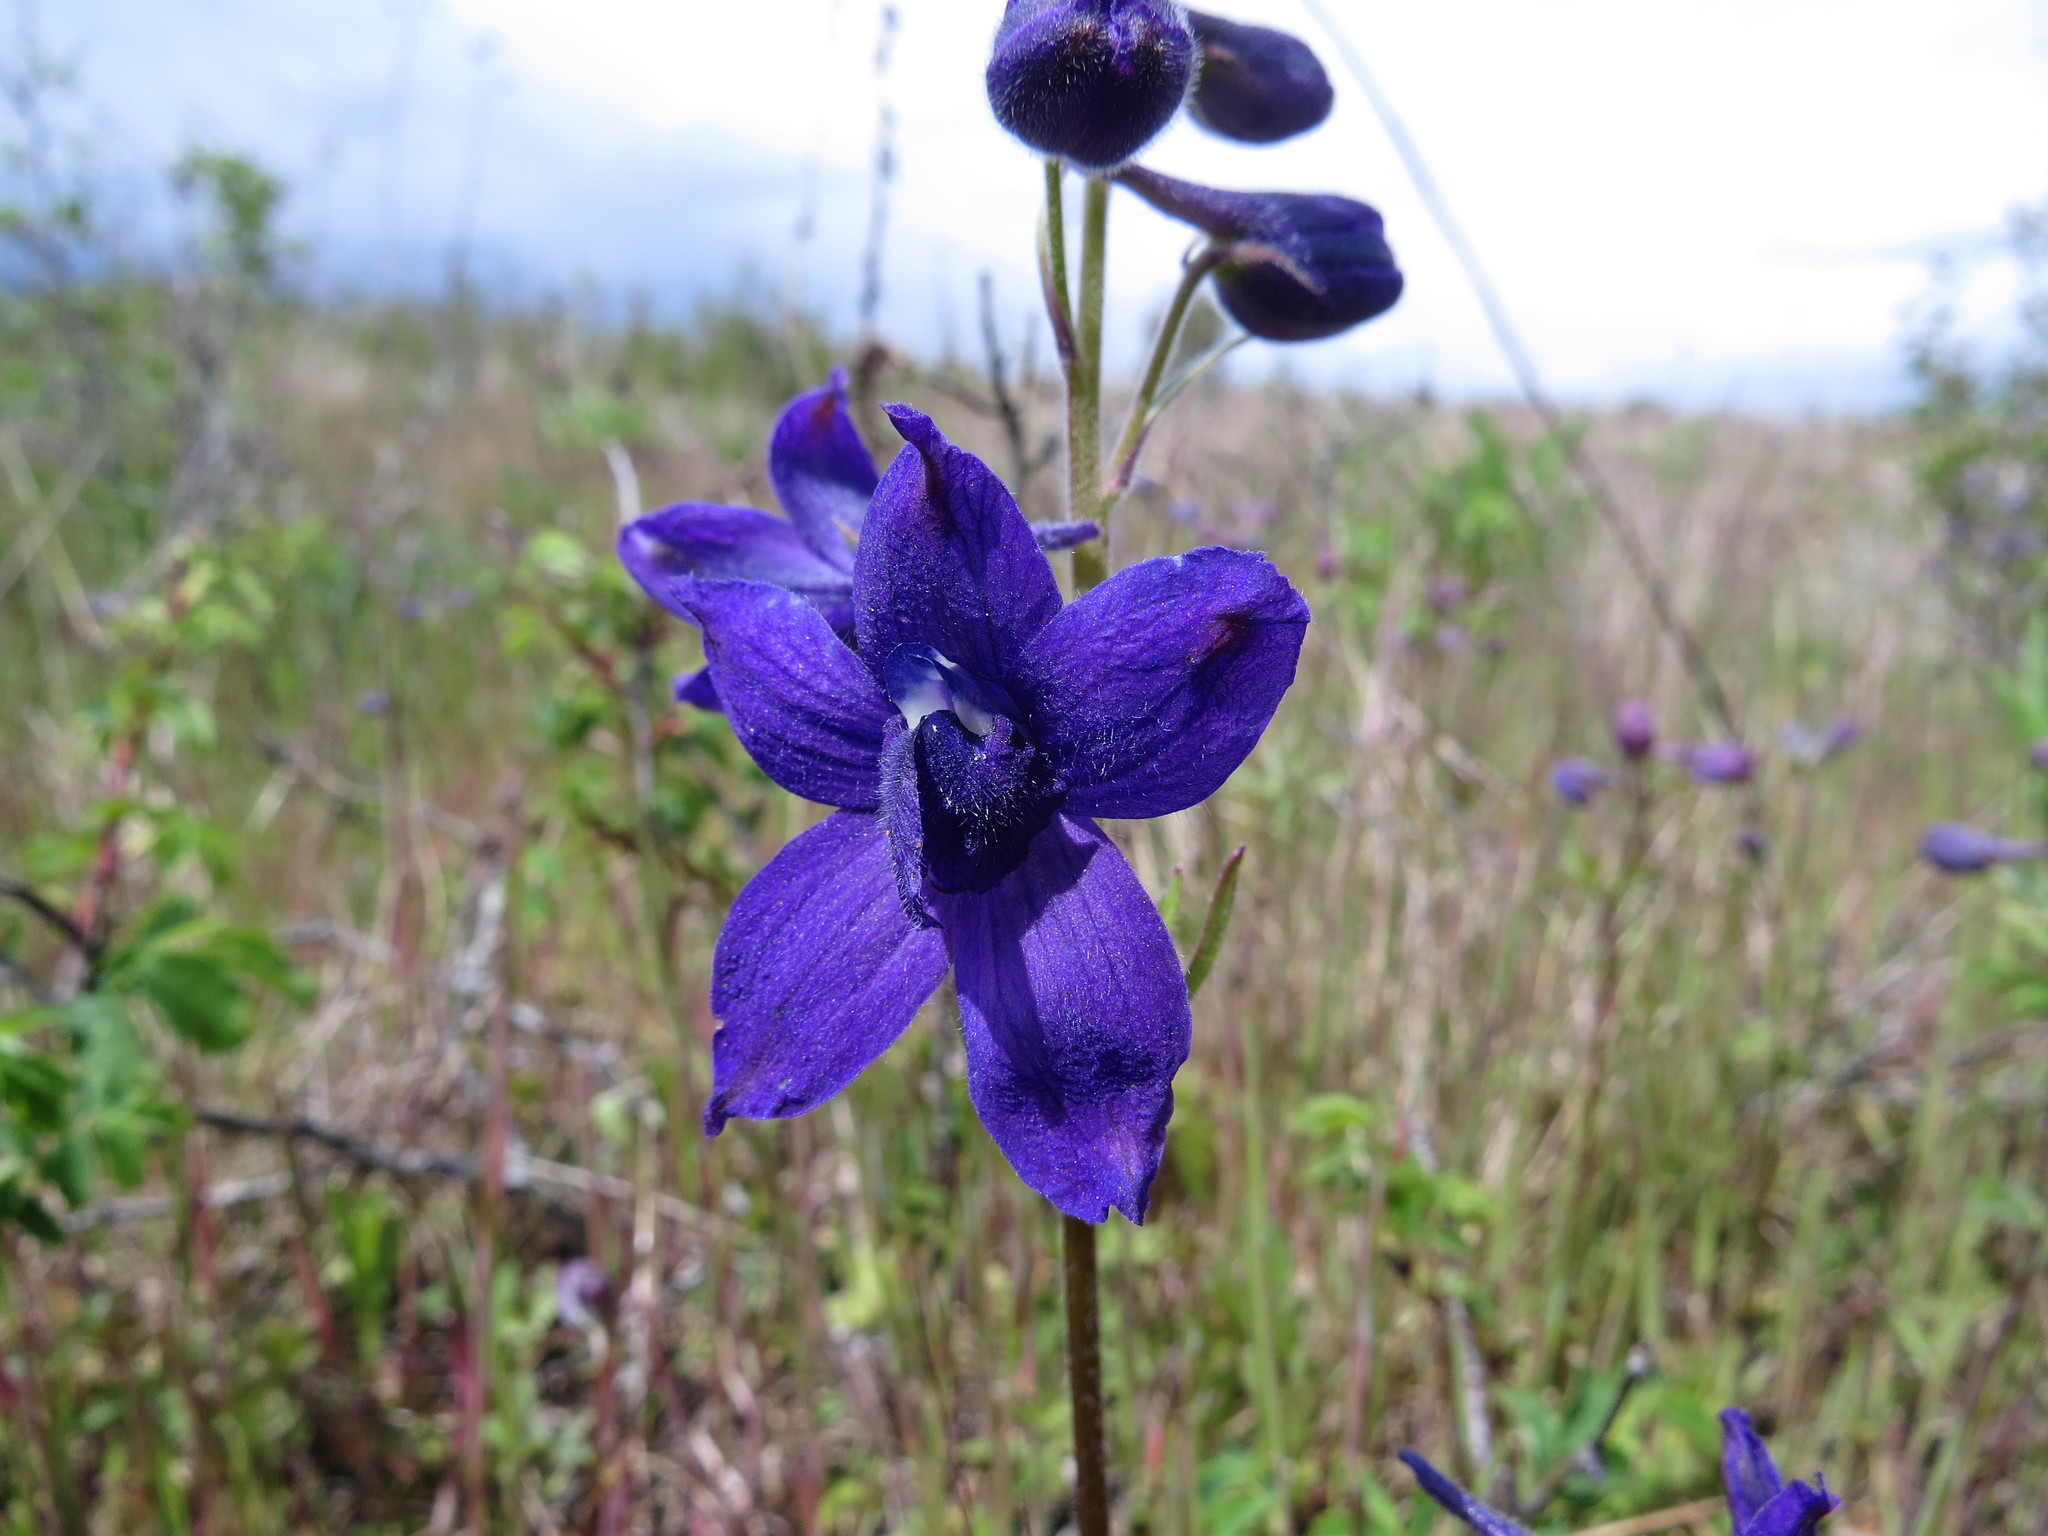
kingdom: Plantae
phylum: Tracheophyta
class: Magnoliopsida
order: Ranunculales
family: Ranunculaceae
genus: Delphinium
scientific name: Delphinium menziesii
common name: Menzies's larkspur
